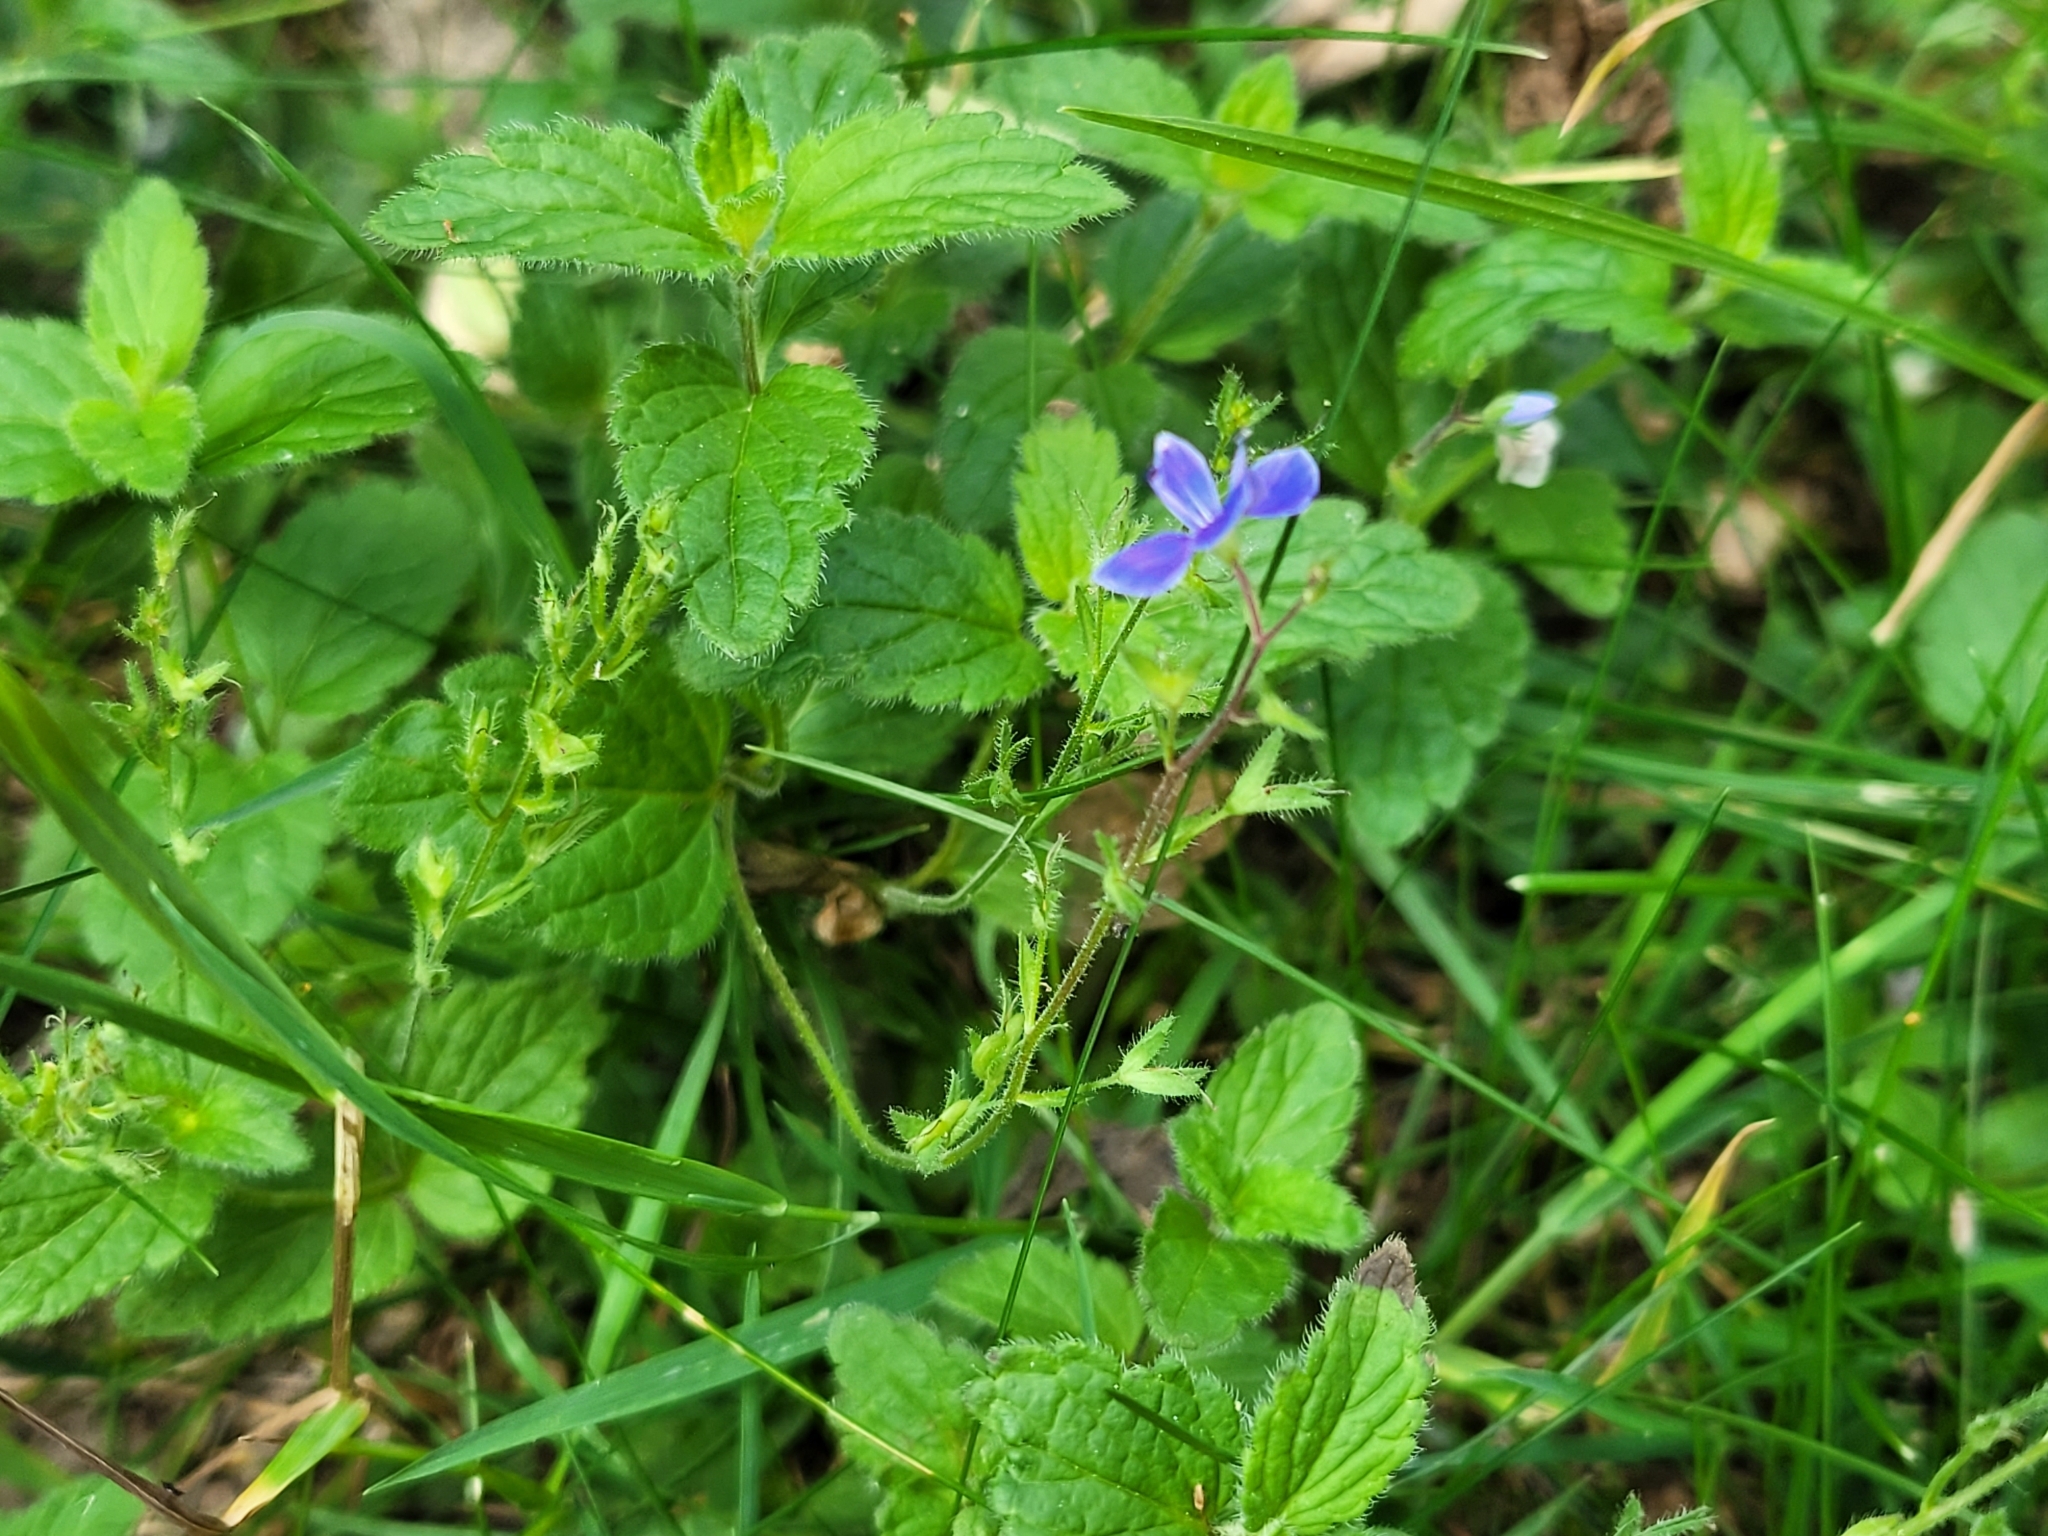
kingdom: Plantae
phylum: Tracheophyta
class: Magnoliopsida
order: Lamiales
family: Plantaginaceae
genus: Veronica
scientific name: Veronica chamaedrys
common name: Germander speedwell
